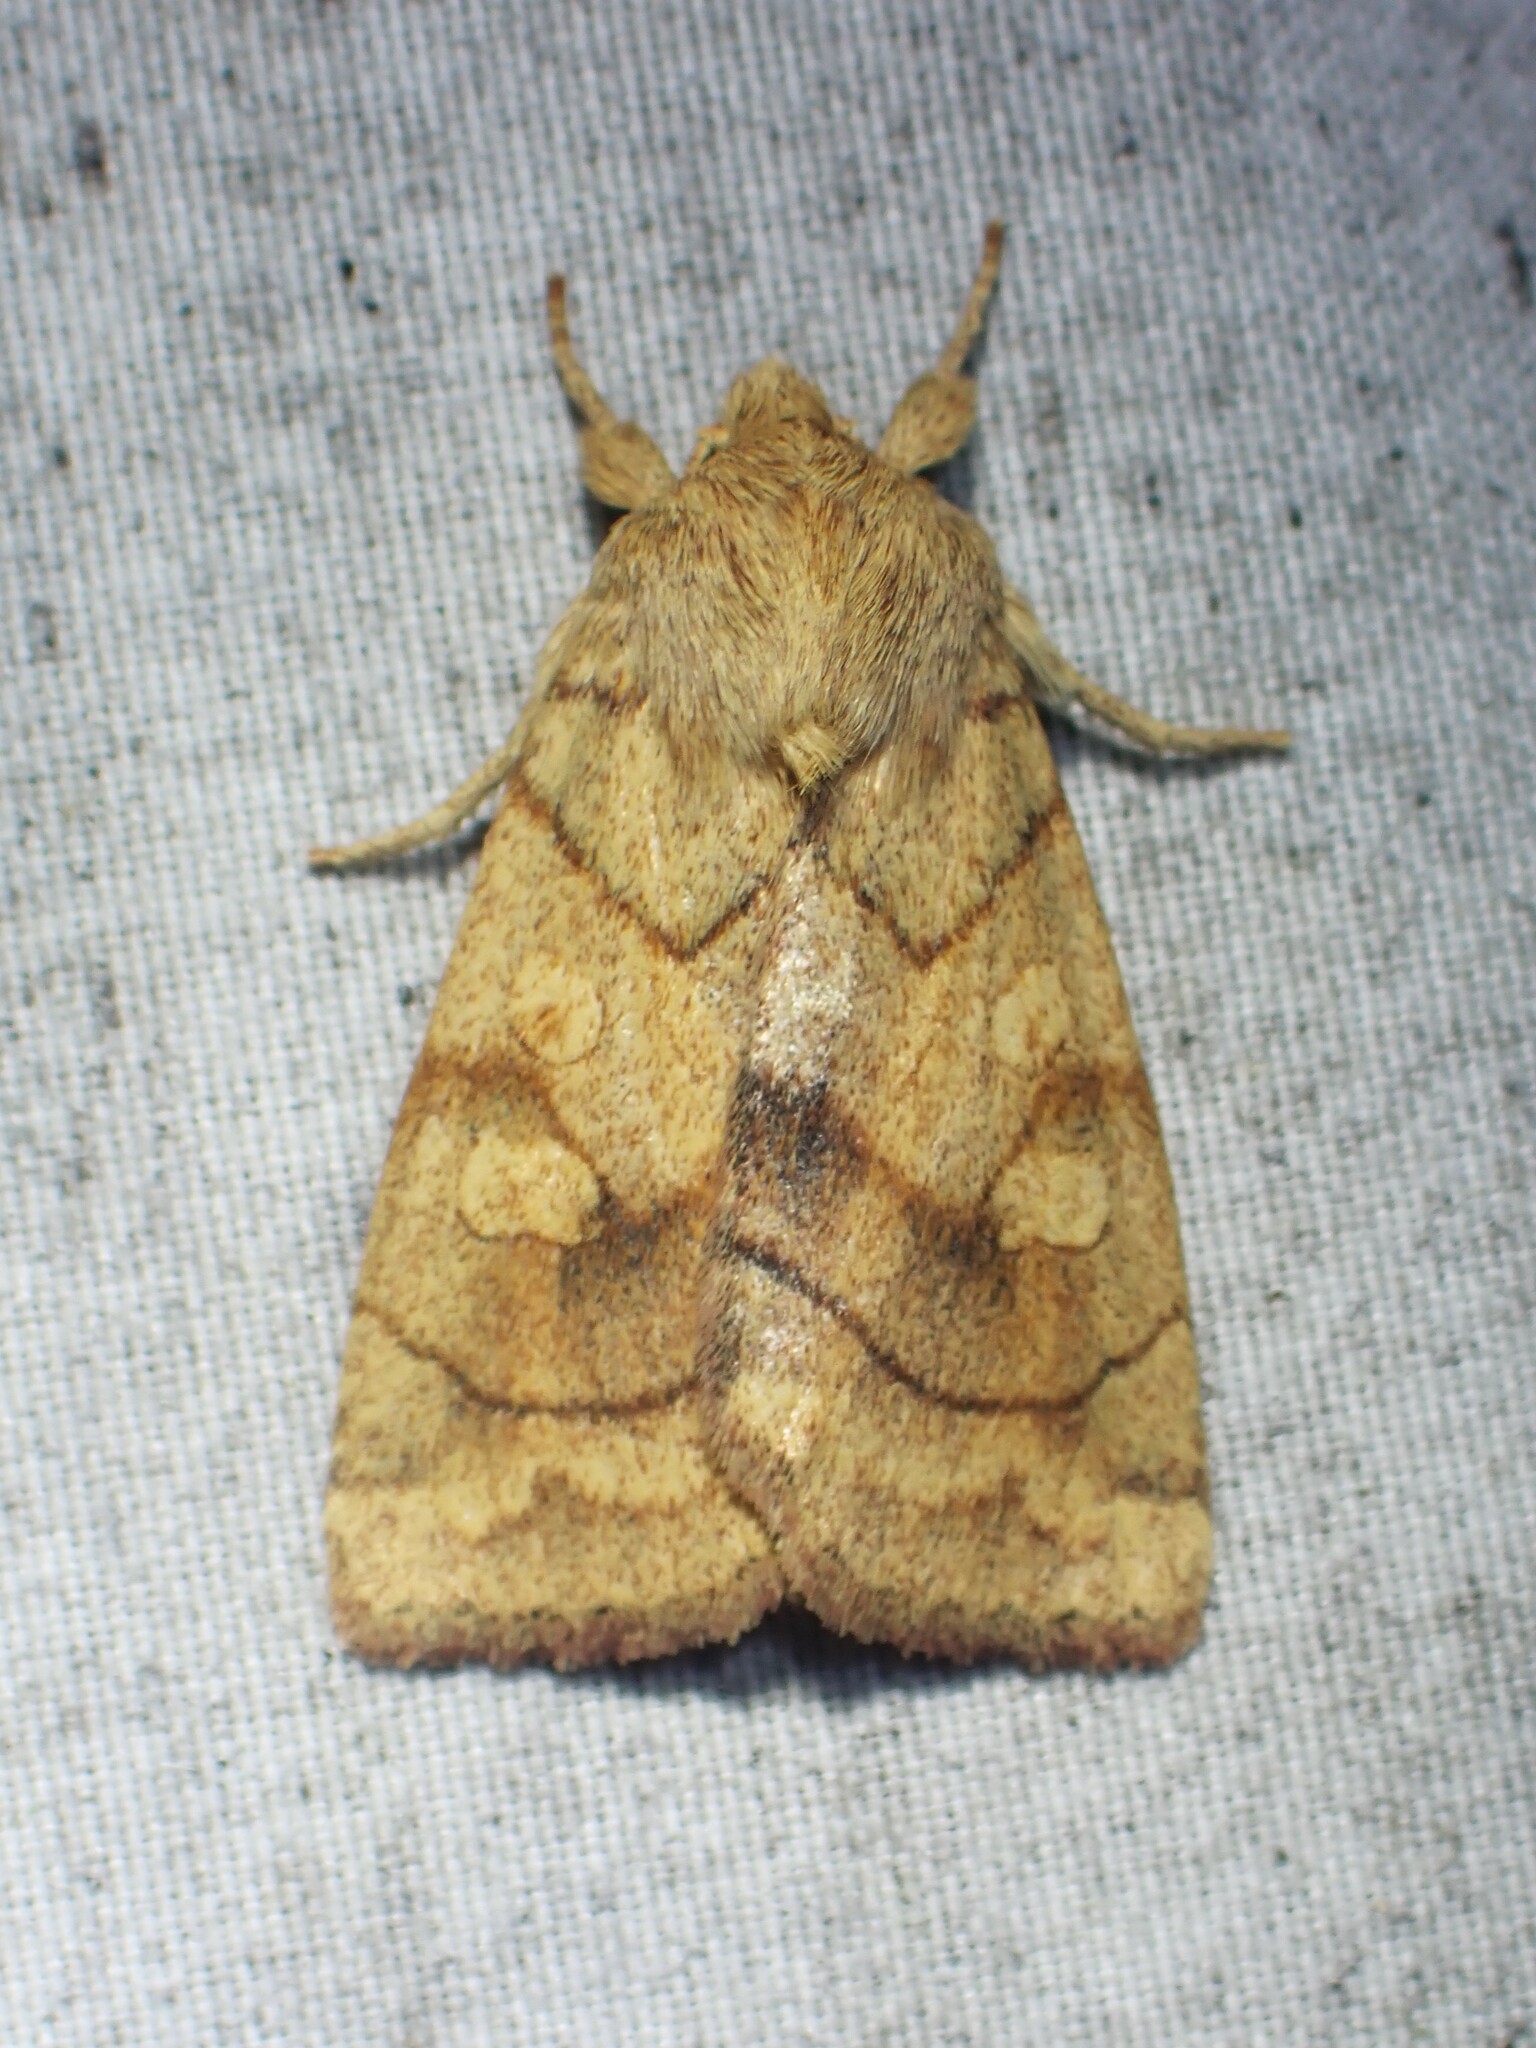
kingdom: Animalia
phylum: Arthropoda
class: Insecta
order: Lepidoptera
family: Noctuidae
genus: Enargia
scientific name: Enargia decolor
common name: Aspen twoleaf tier moth
